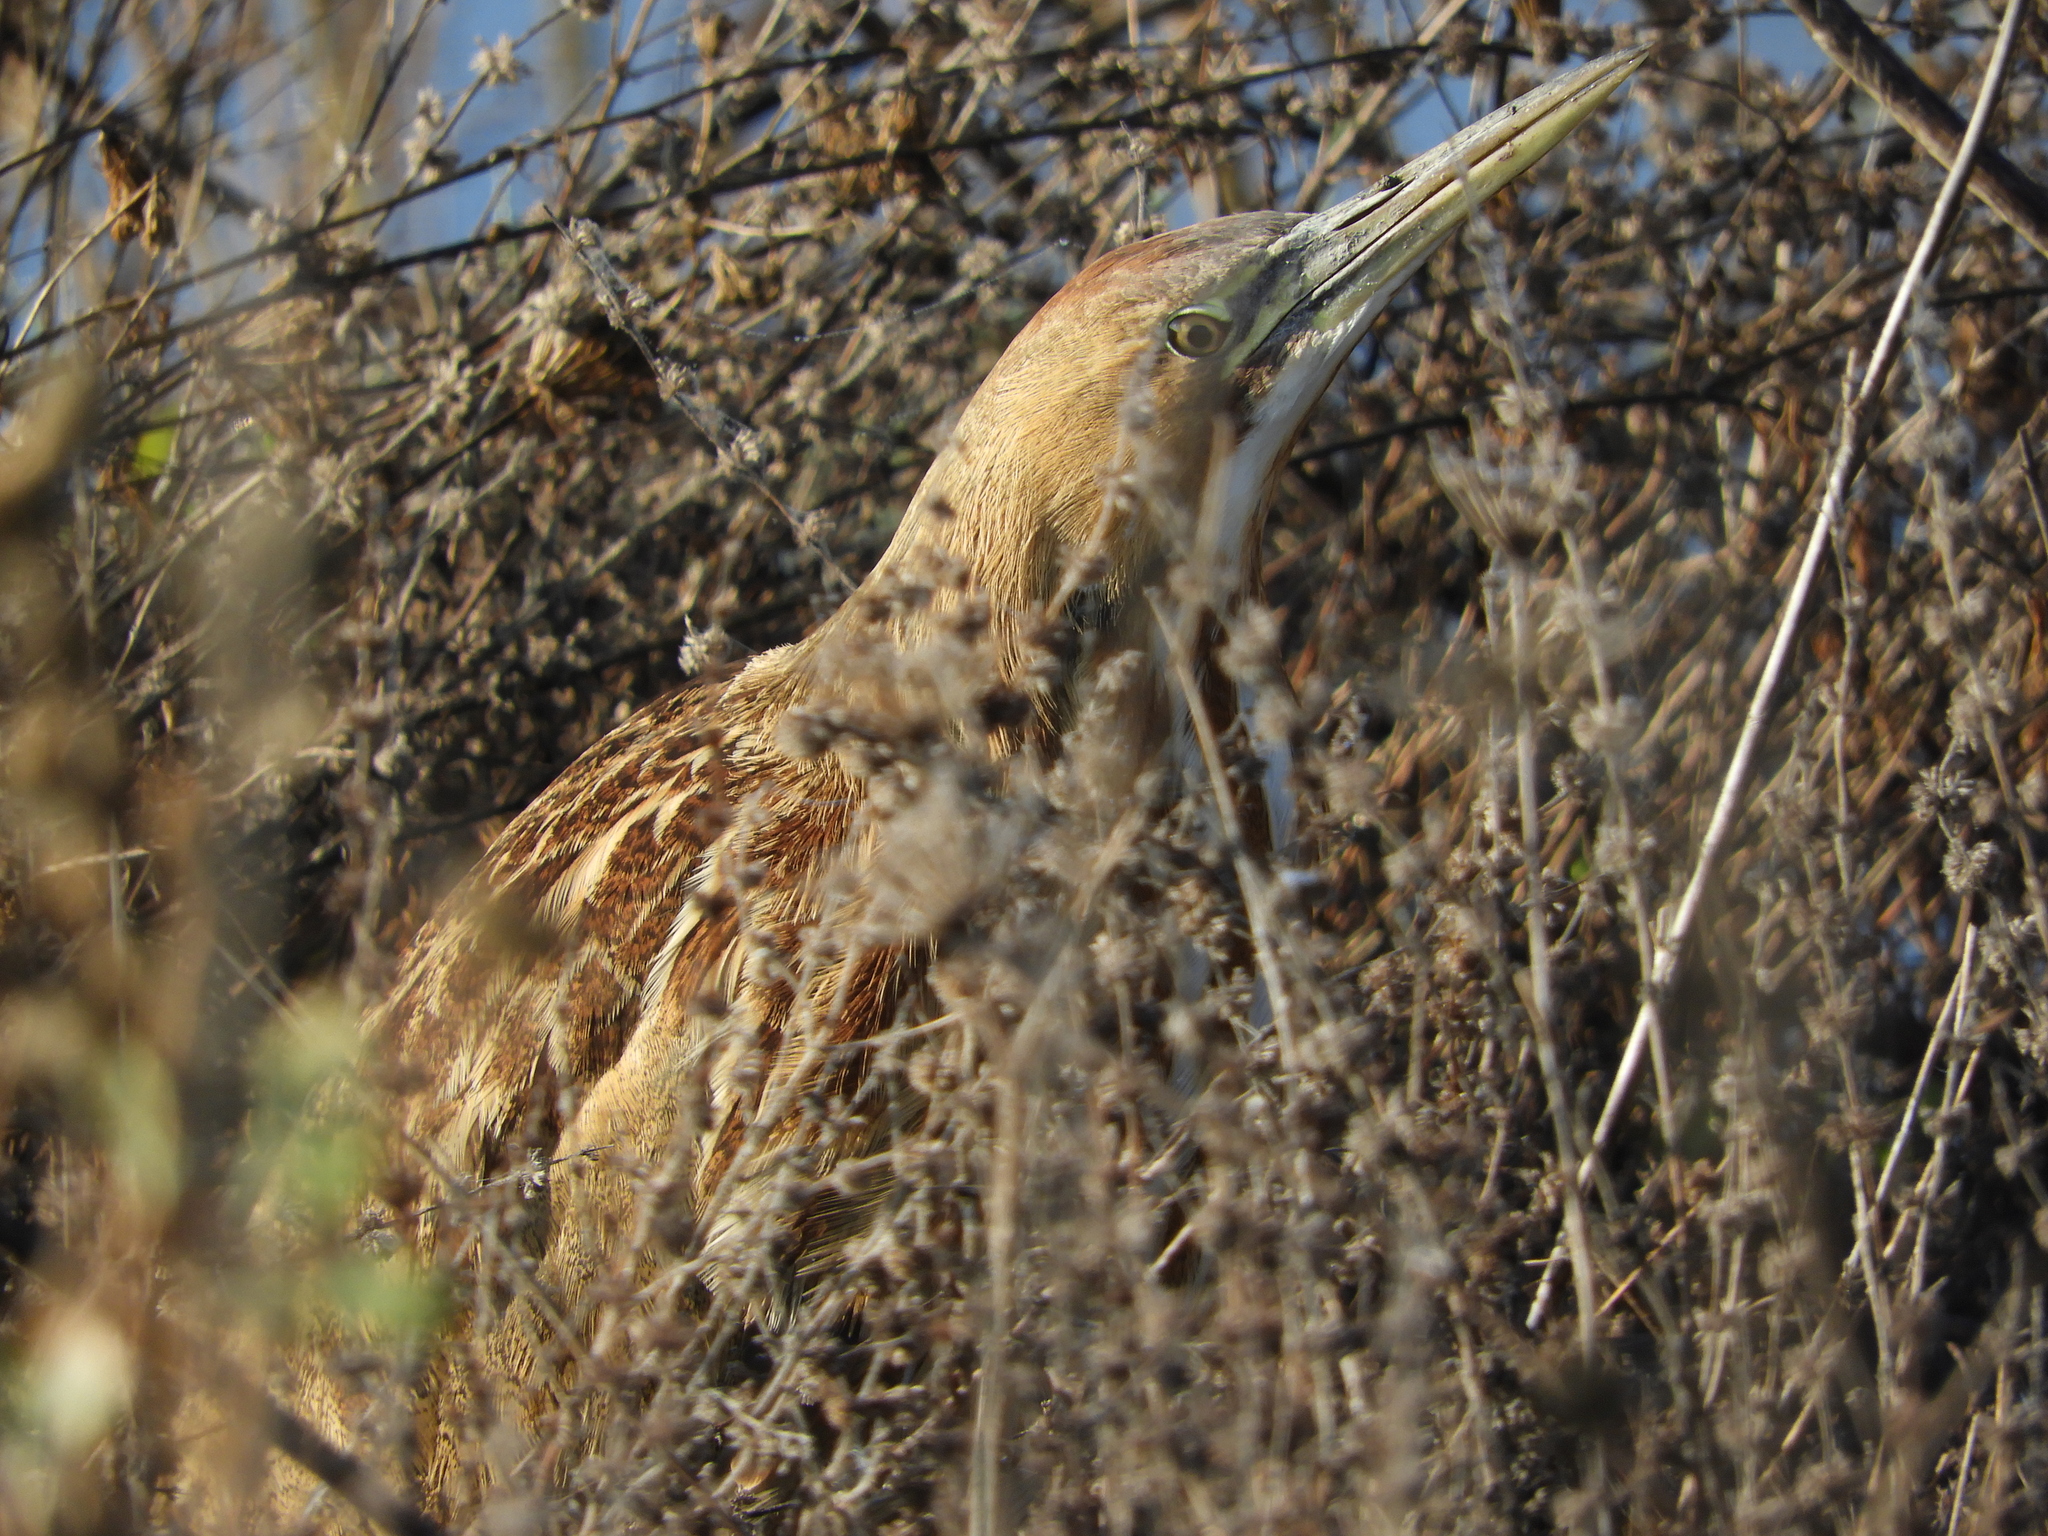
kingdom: Animalia
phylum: Chordata
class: Aves
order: Pelecaniformes
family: Ardeidae
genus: Botaurus
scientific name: Botaurus lentiginosus
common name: American bittern
